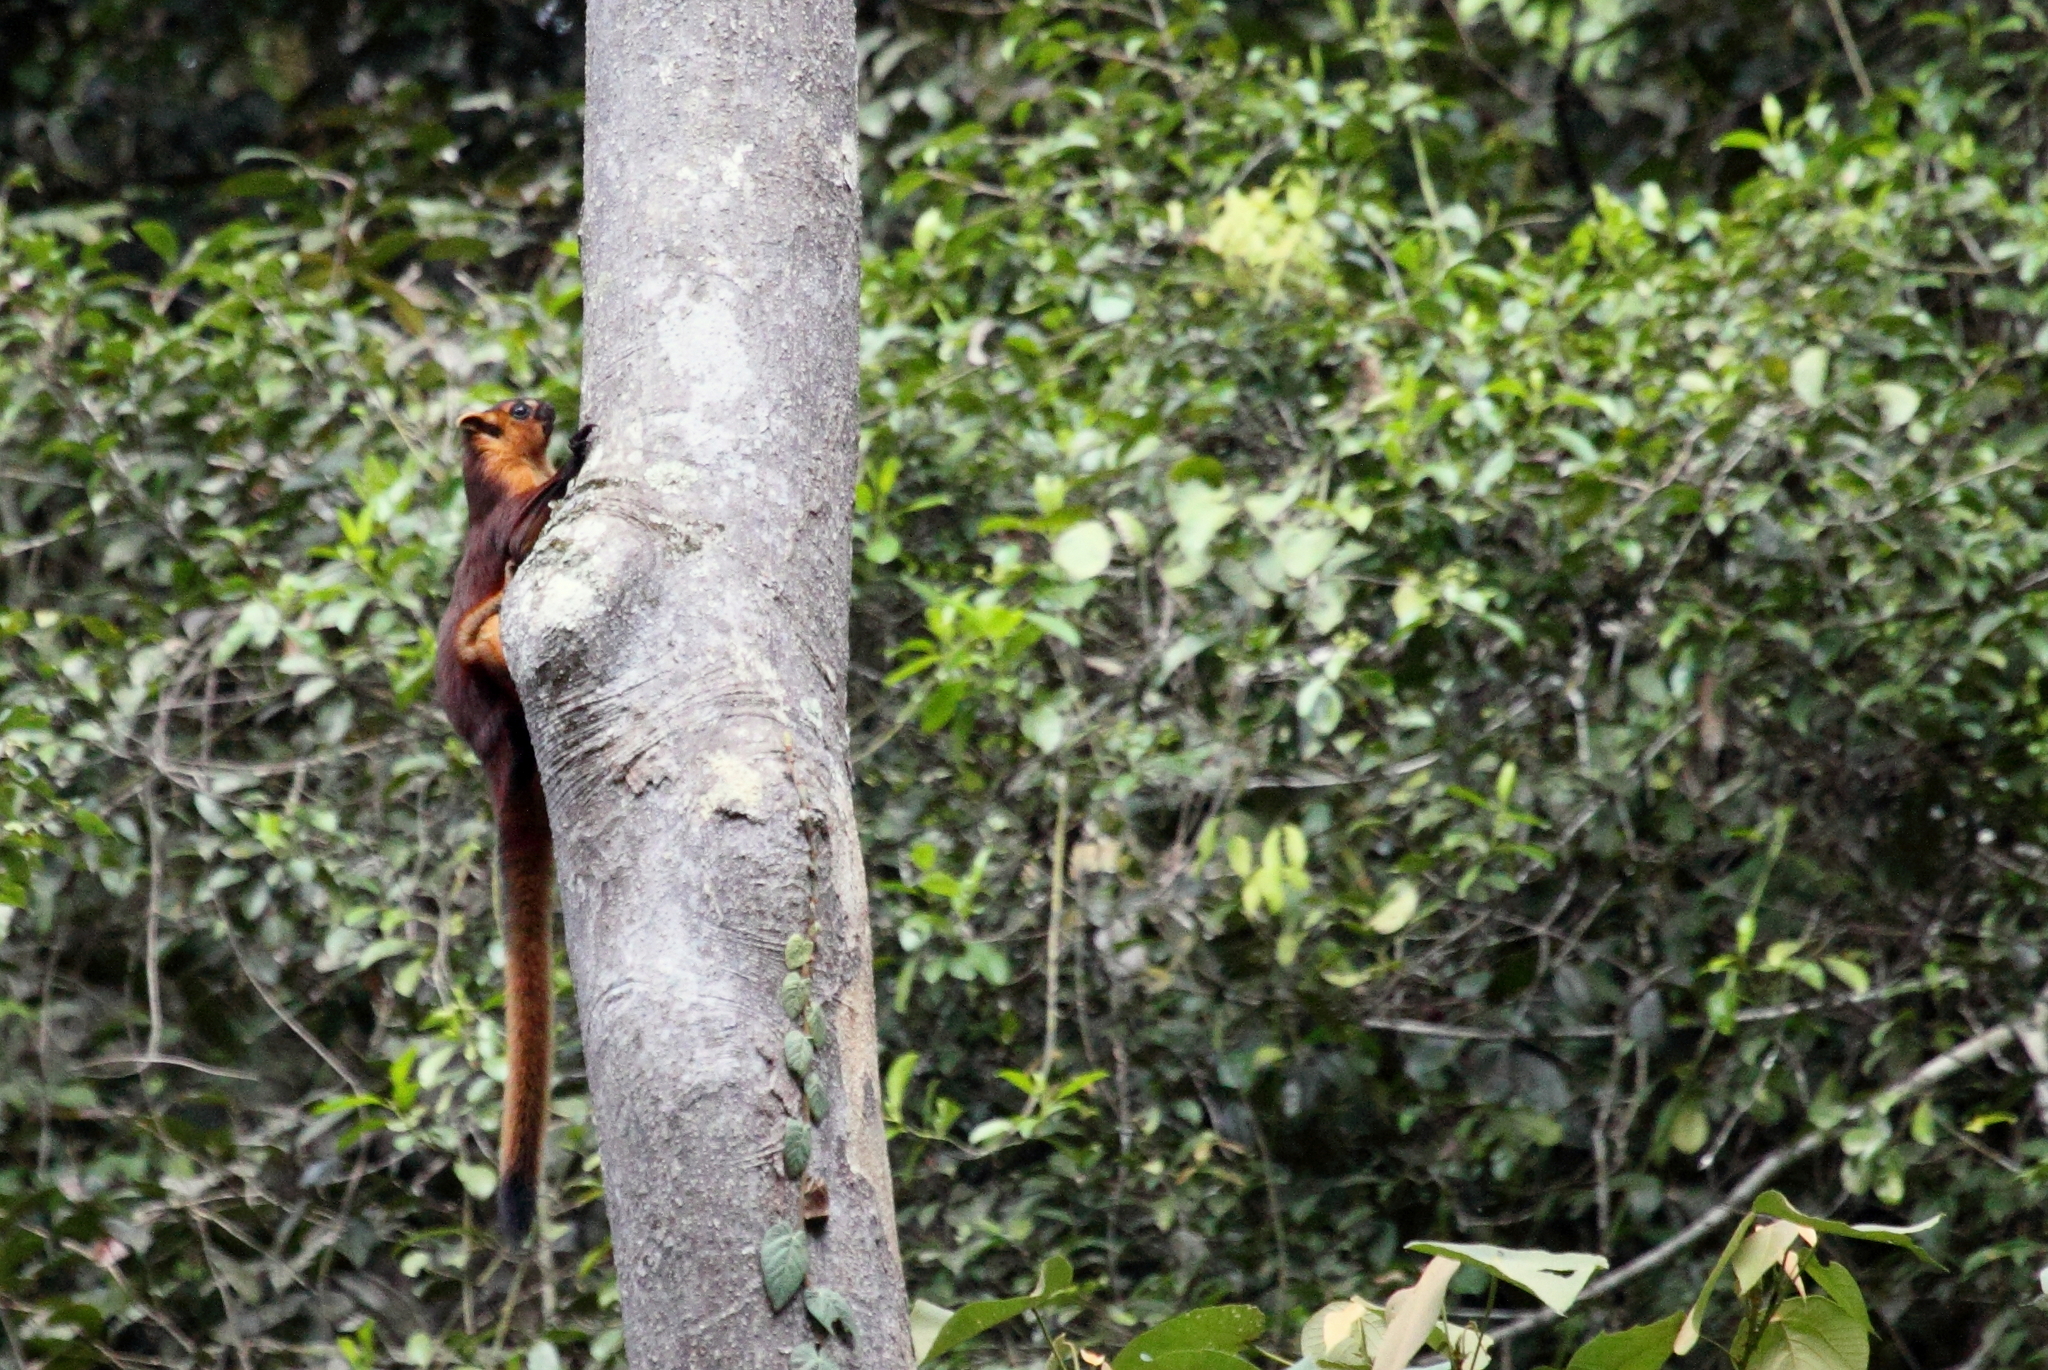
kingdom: Animalia
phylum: Chordata
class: Mammalia
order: Rodentia
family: Sciuridae
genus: Petaurista
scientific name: Petaurista petaurista
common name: Red giant flying squirrel
